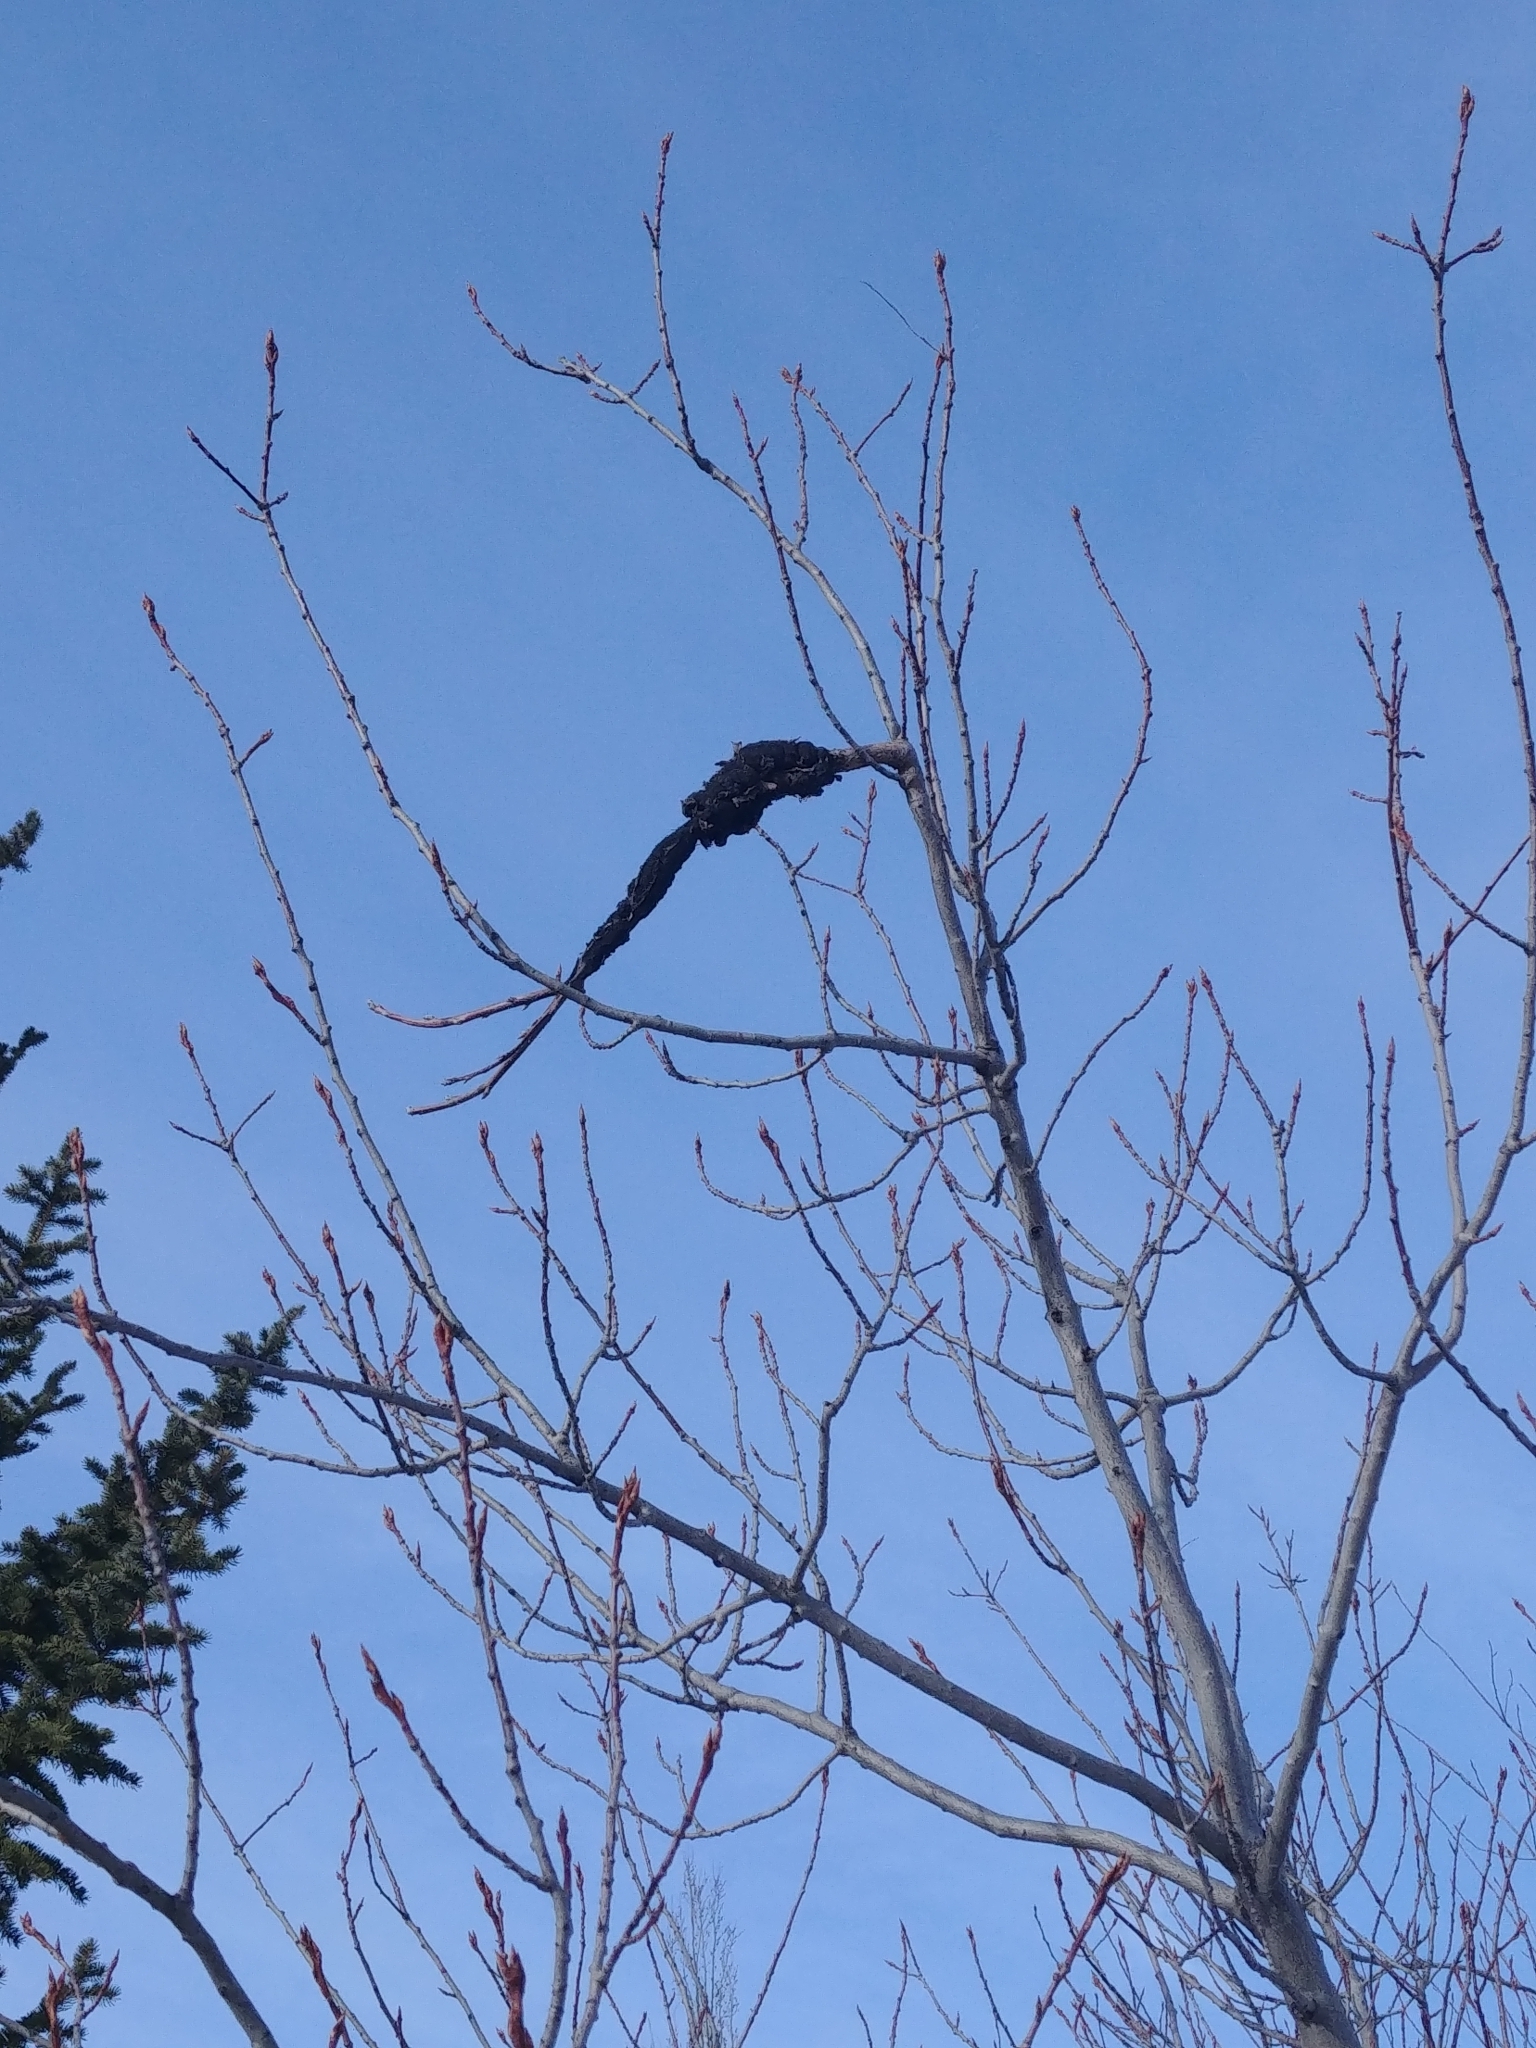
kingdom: Fungi
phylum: Ascomycota
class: Dothideomycetes
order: Venturiales
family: Venturiaceae
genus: Apiosporina
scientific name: Apiosporina morbosa
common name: Black knot
